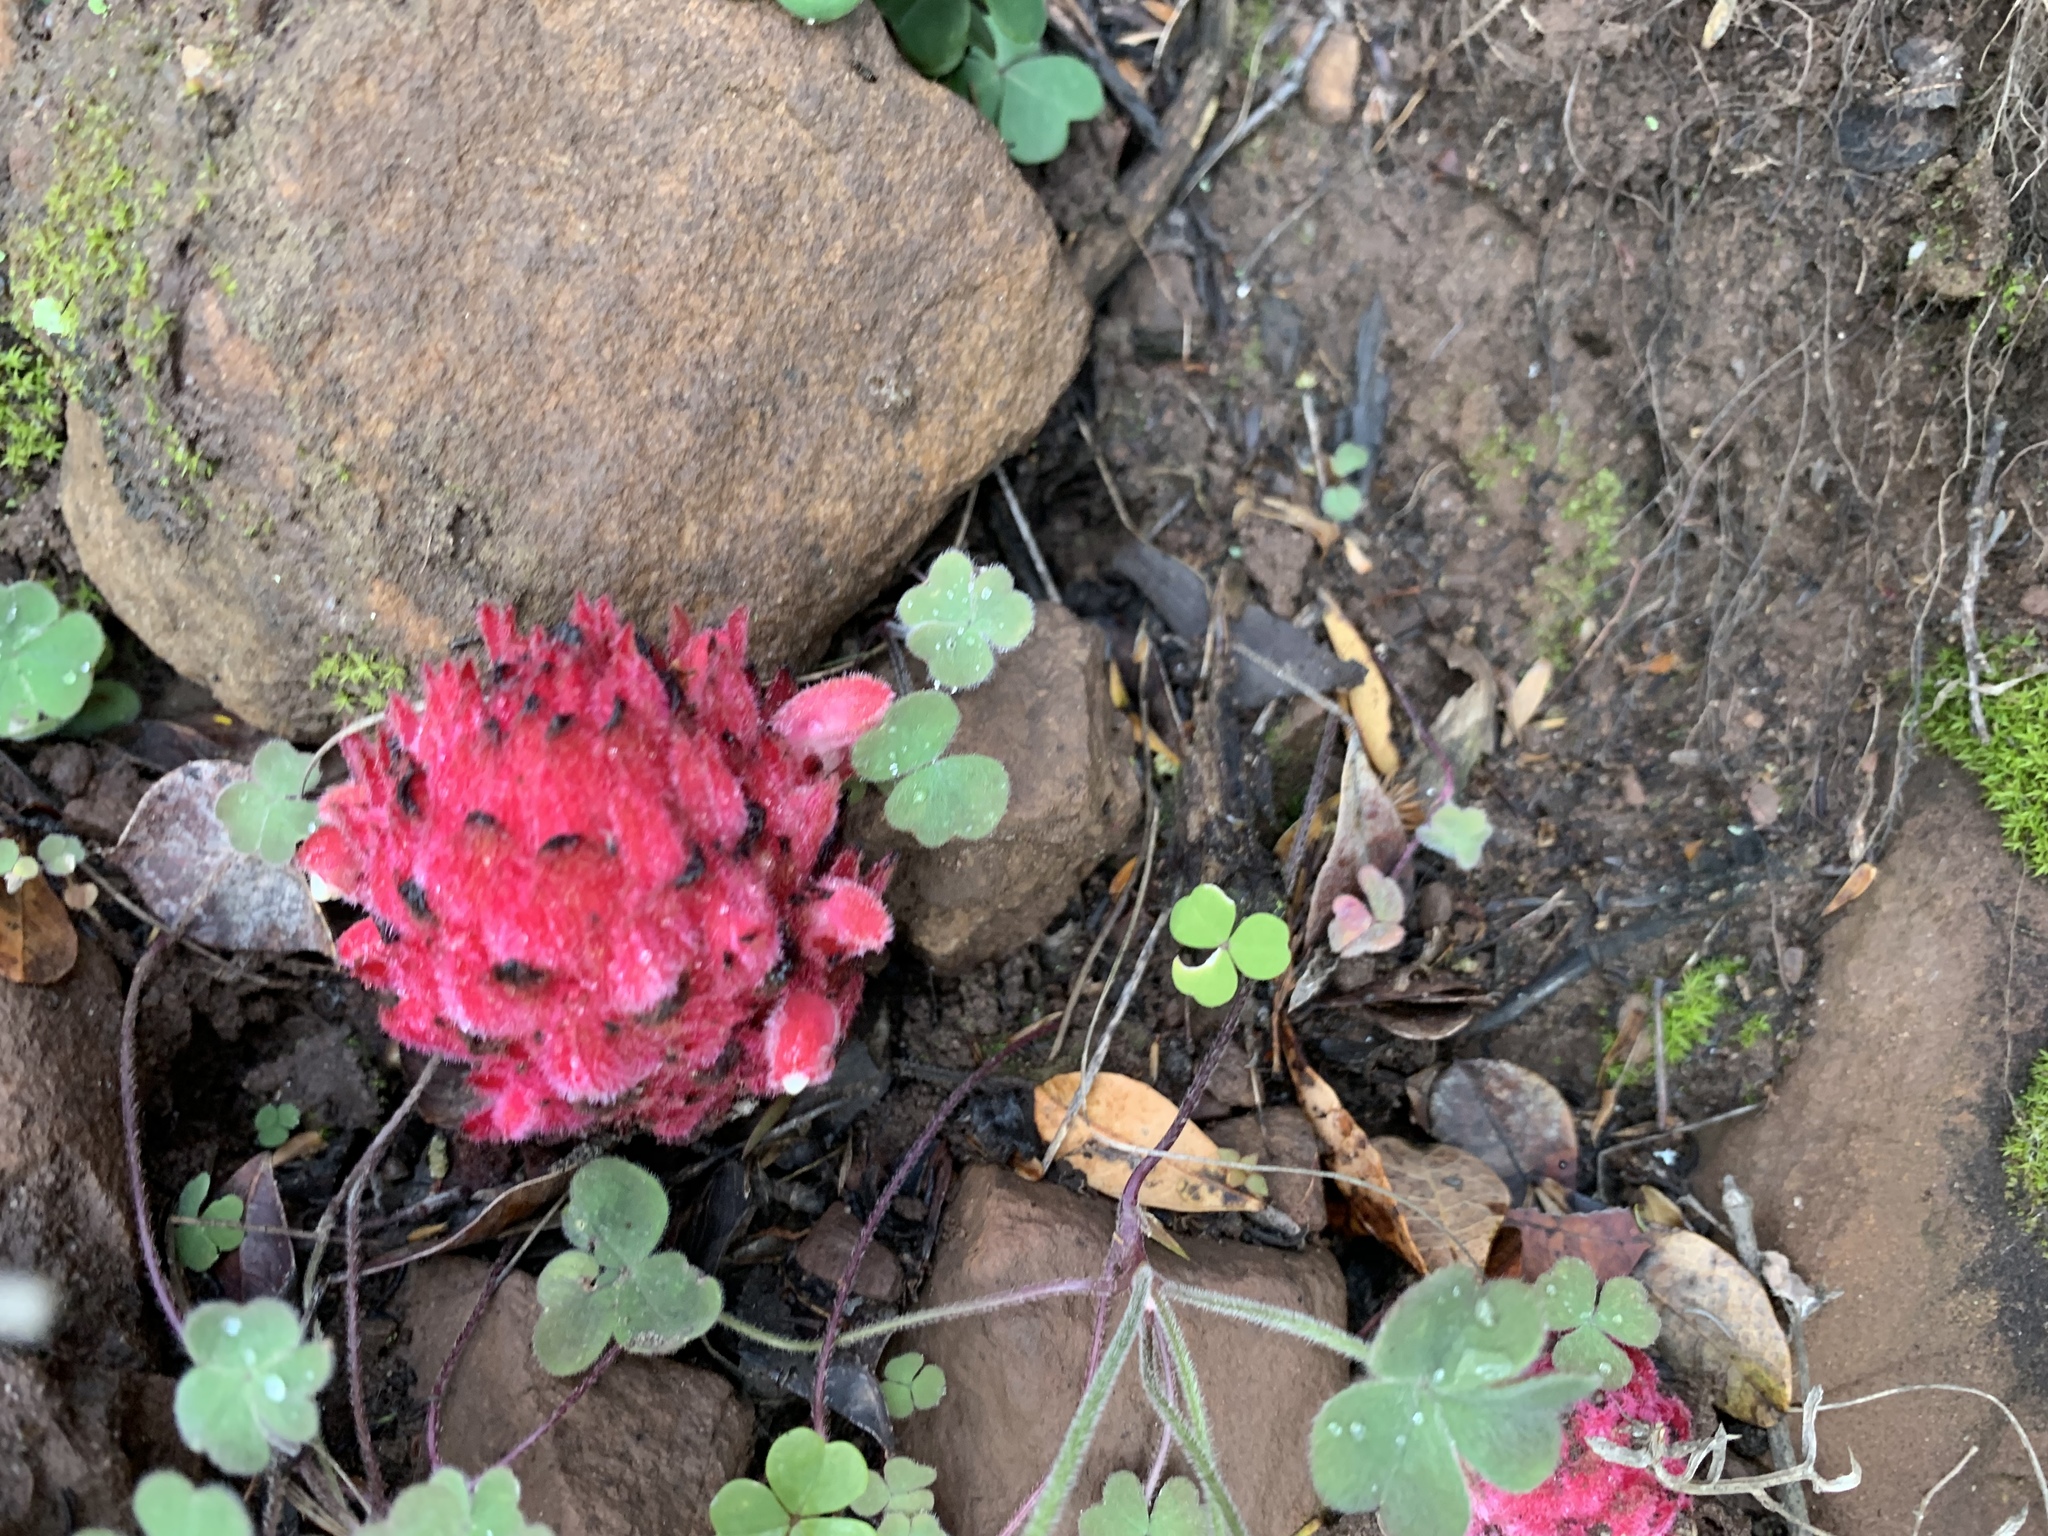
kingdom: Plantae
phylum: Tracheophyta
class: Magnoliopsida
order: Lamiales
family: Orobanchaceae
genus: Hyobanche
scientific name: Hyobanche sanguinea
